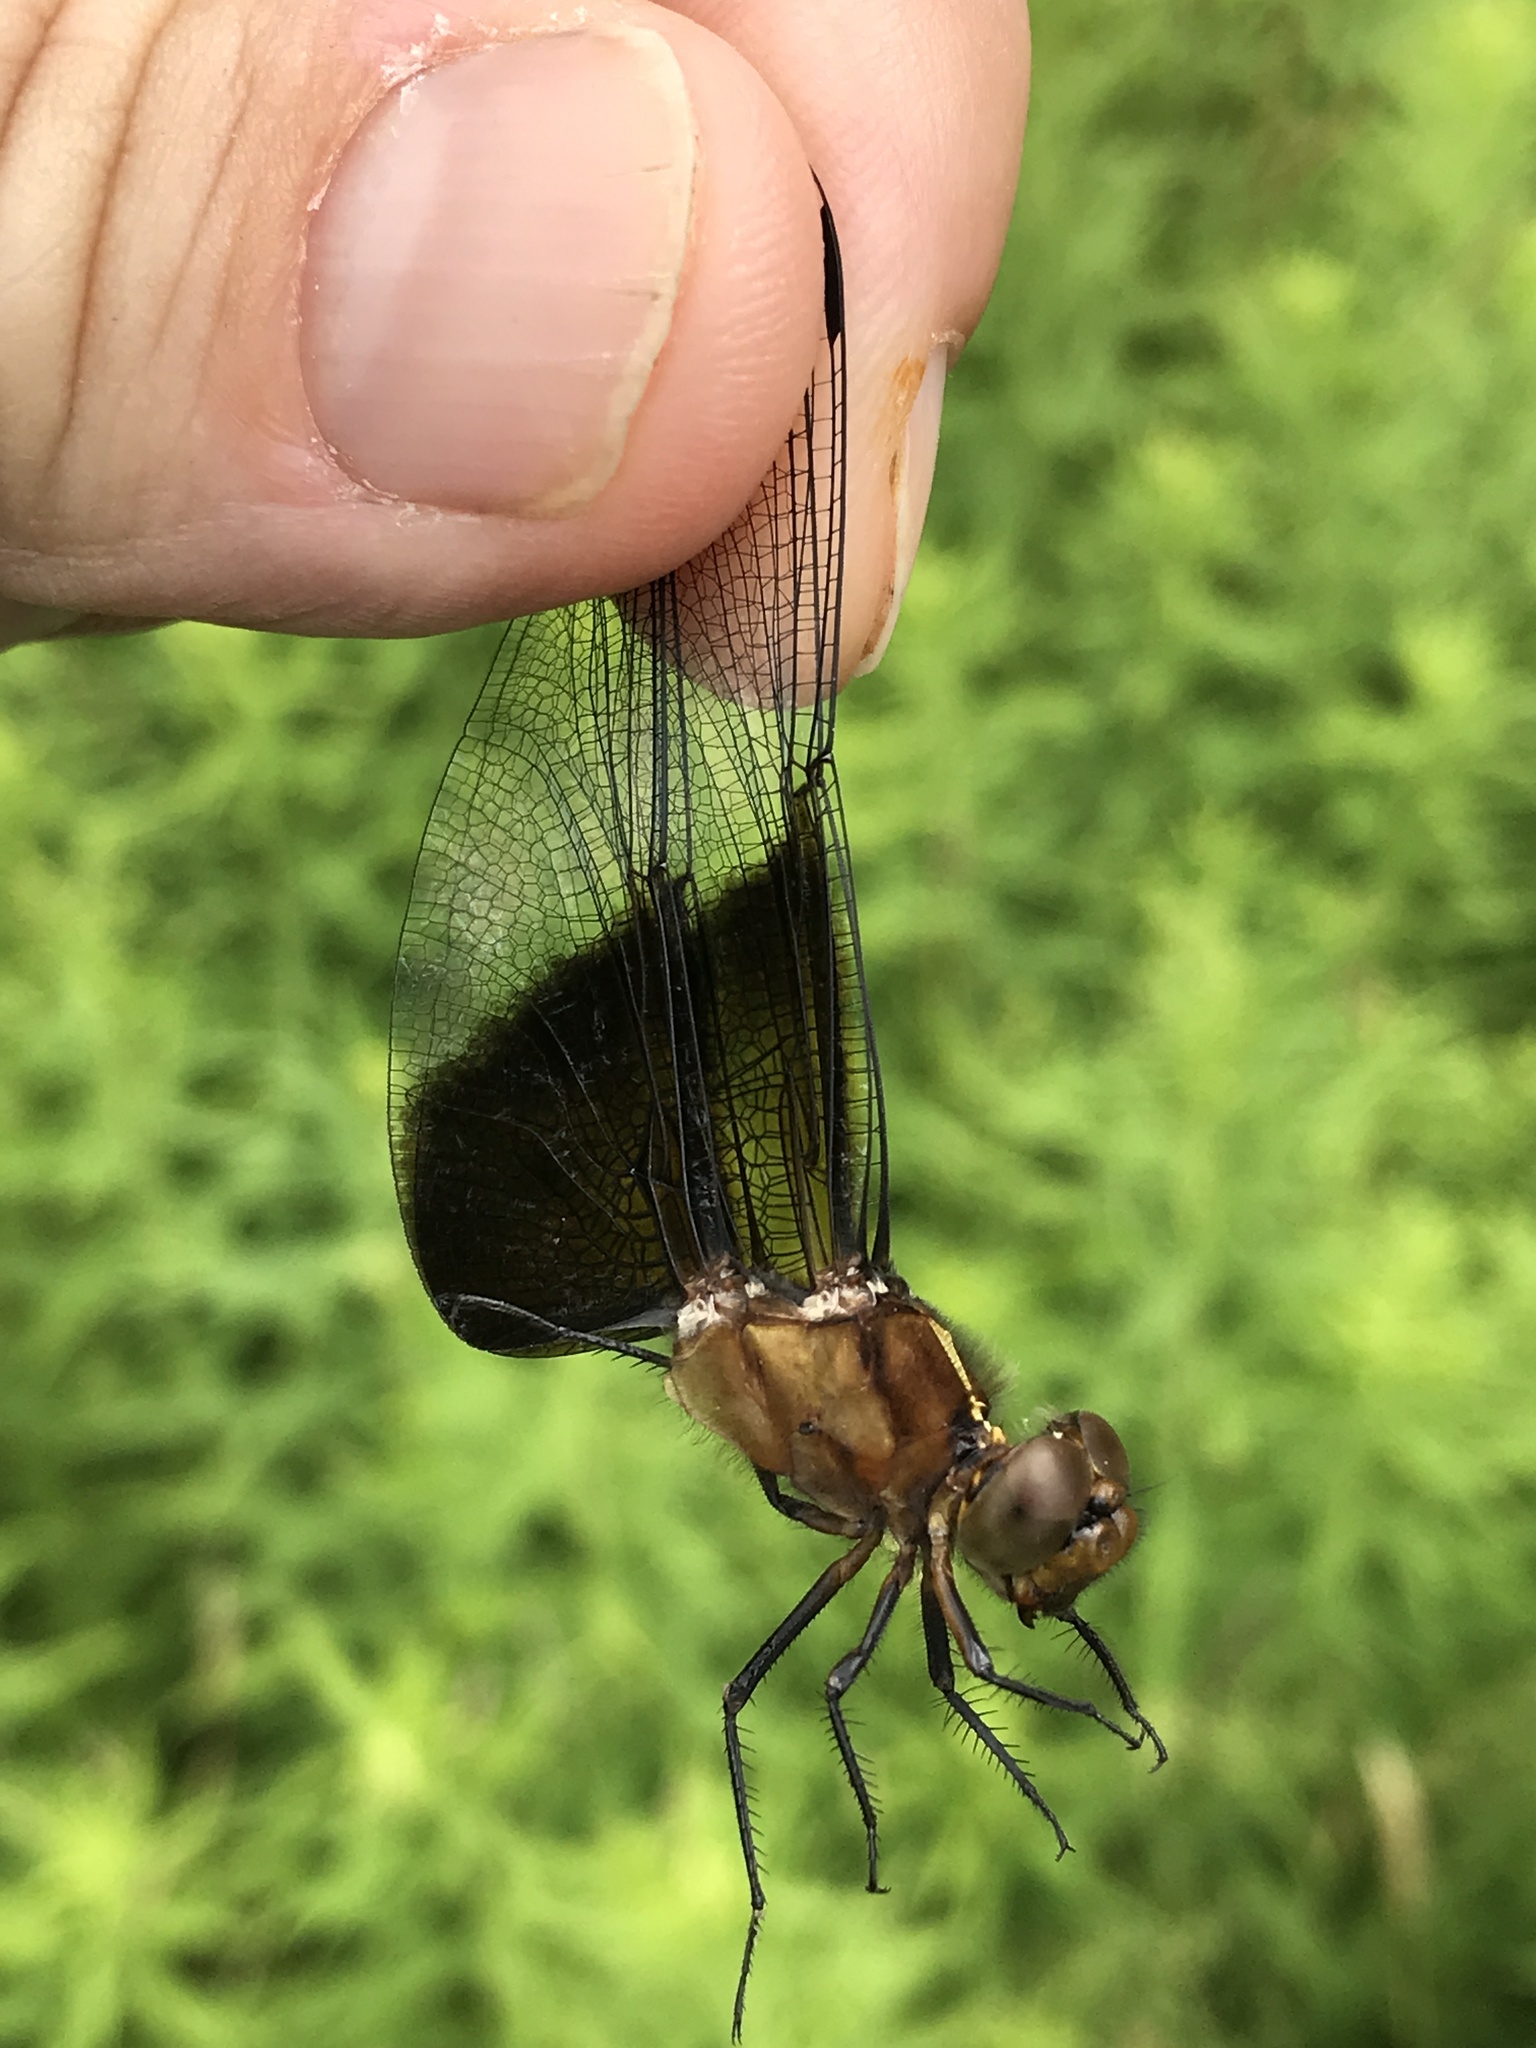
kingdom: Animalia
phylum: Arthropoda
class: Insecta
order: Odonata
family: Libellulidae
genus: Libellula
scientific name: Libellula luctuosa
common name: Widow skimmer
